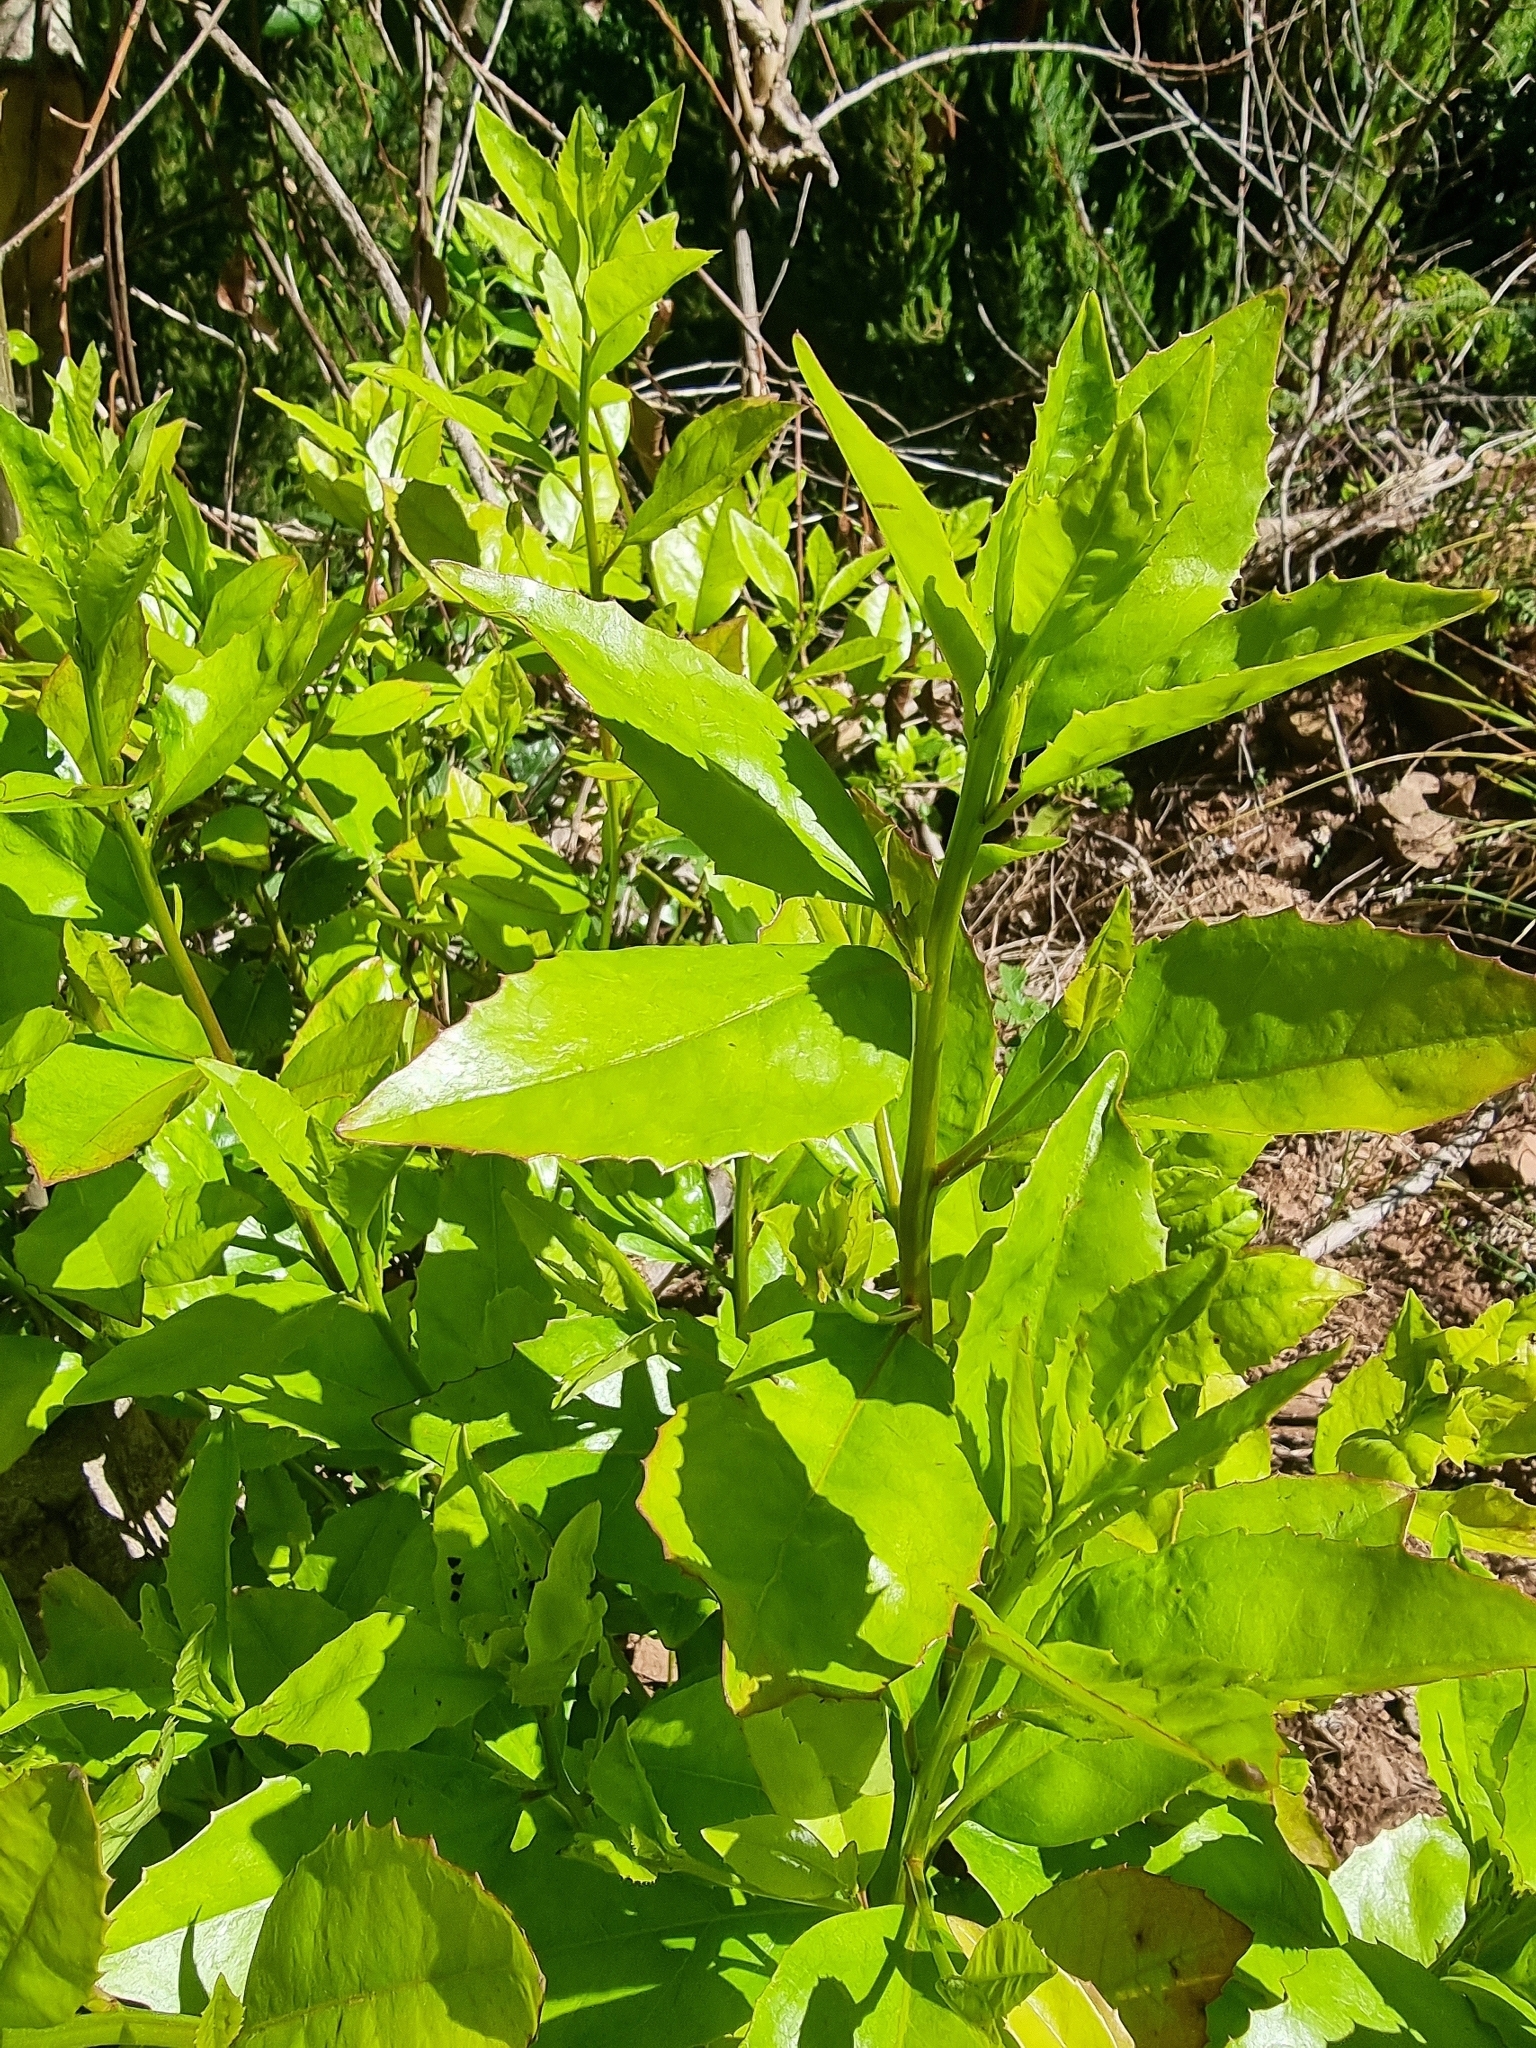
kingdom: Plantae
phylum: Tracheophyta
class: Magnoliopsida
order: Aquifoliales
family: Aquifoliaceae
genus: Ilex
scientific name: Ilex canariensis
